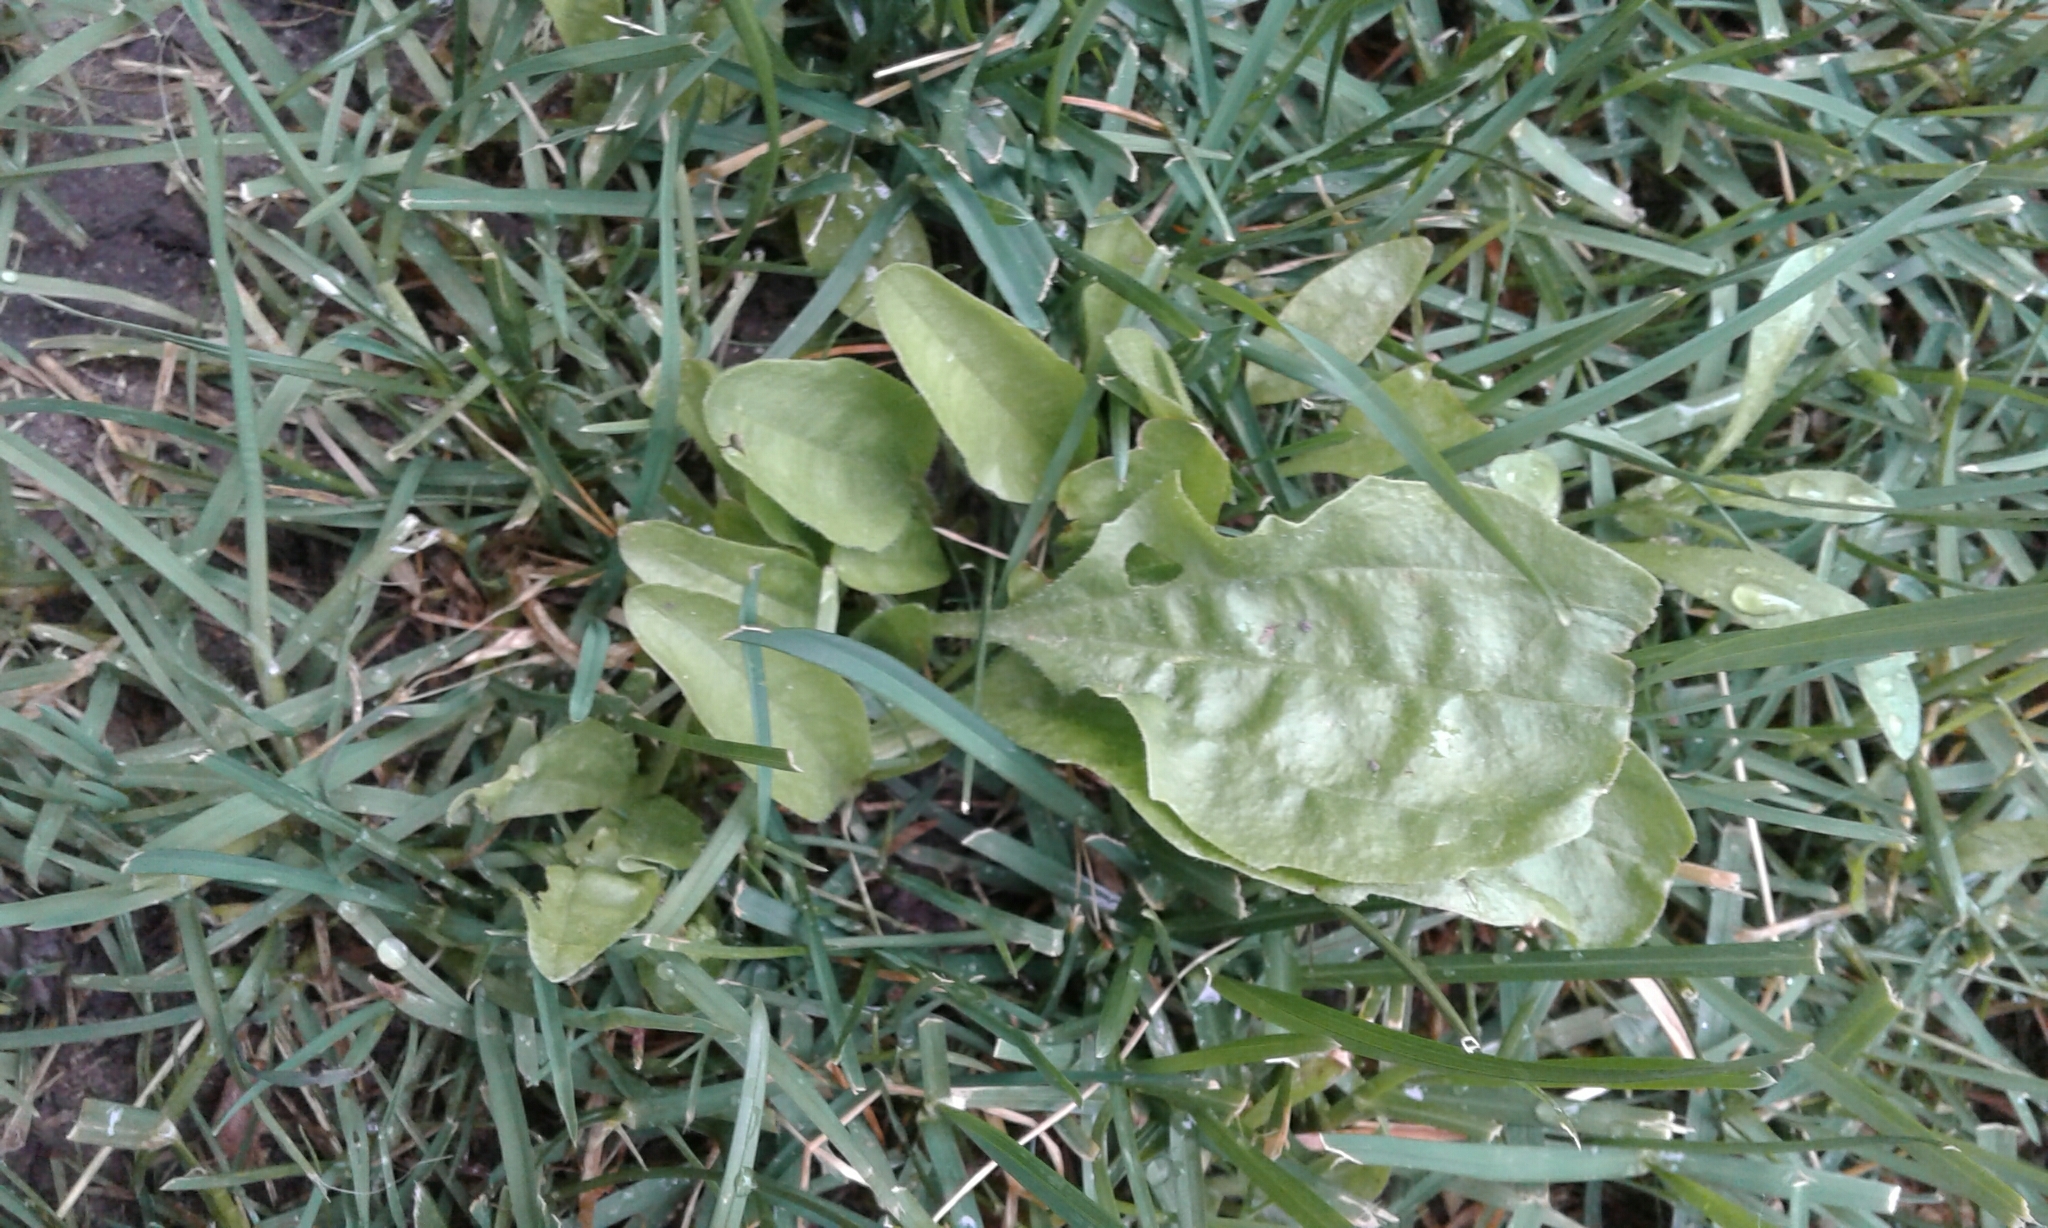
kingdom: Plantae
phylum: Tracheophyta
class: Magnoliopsida
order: Lamiales
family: Plantaginaceae
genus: Plantago
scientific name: Plantago major
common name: Common plantain
